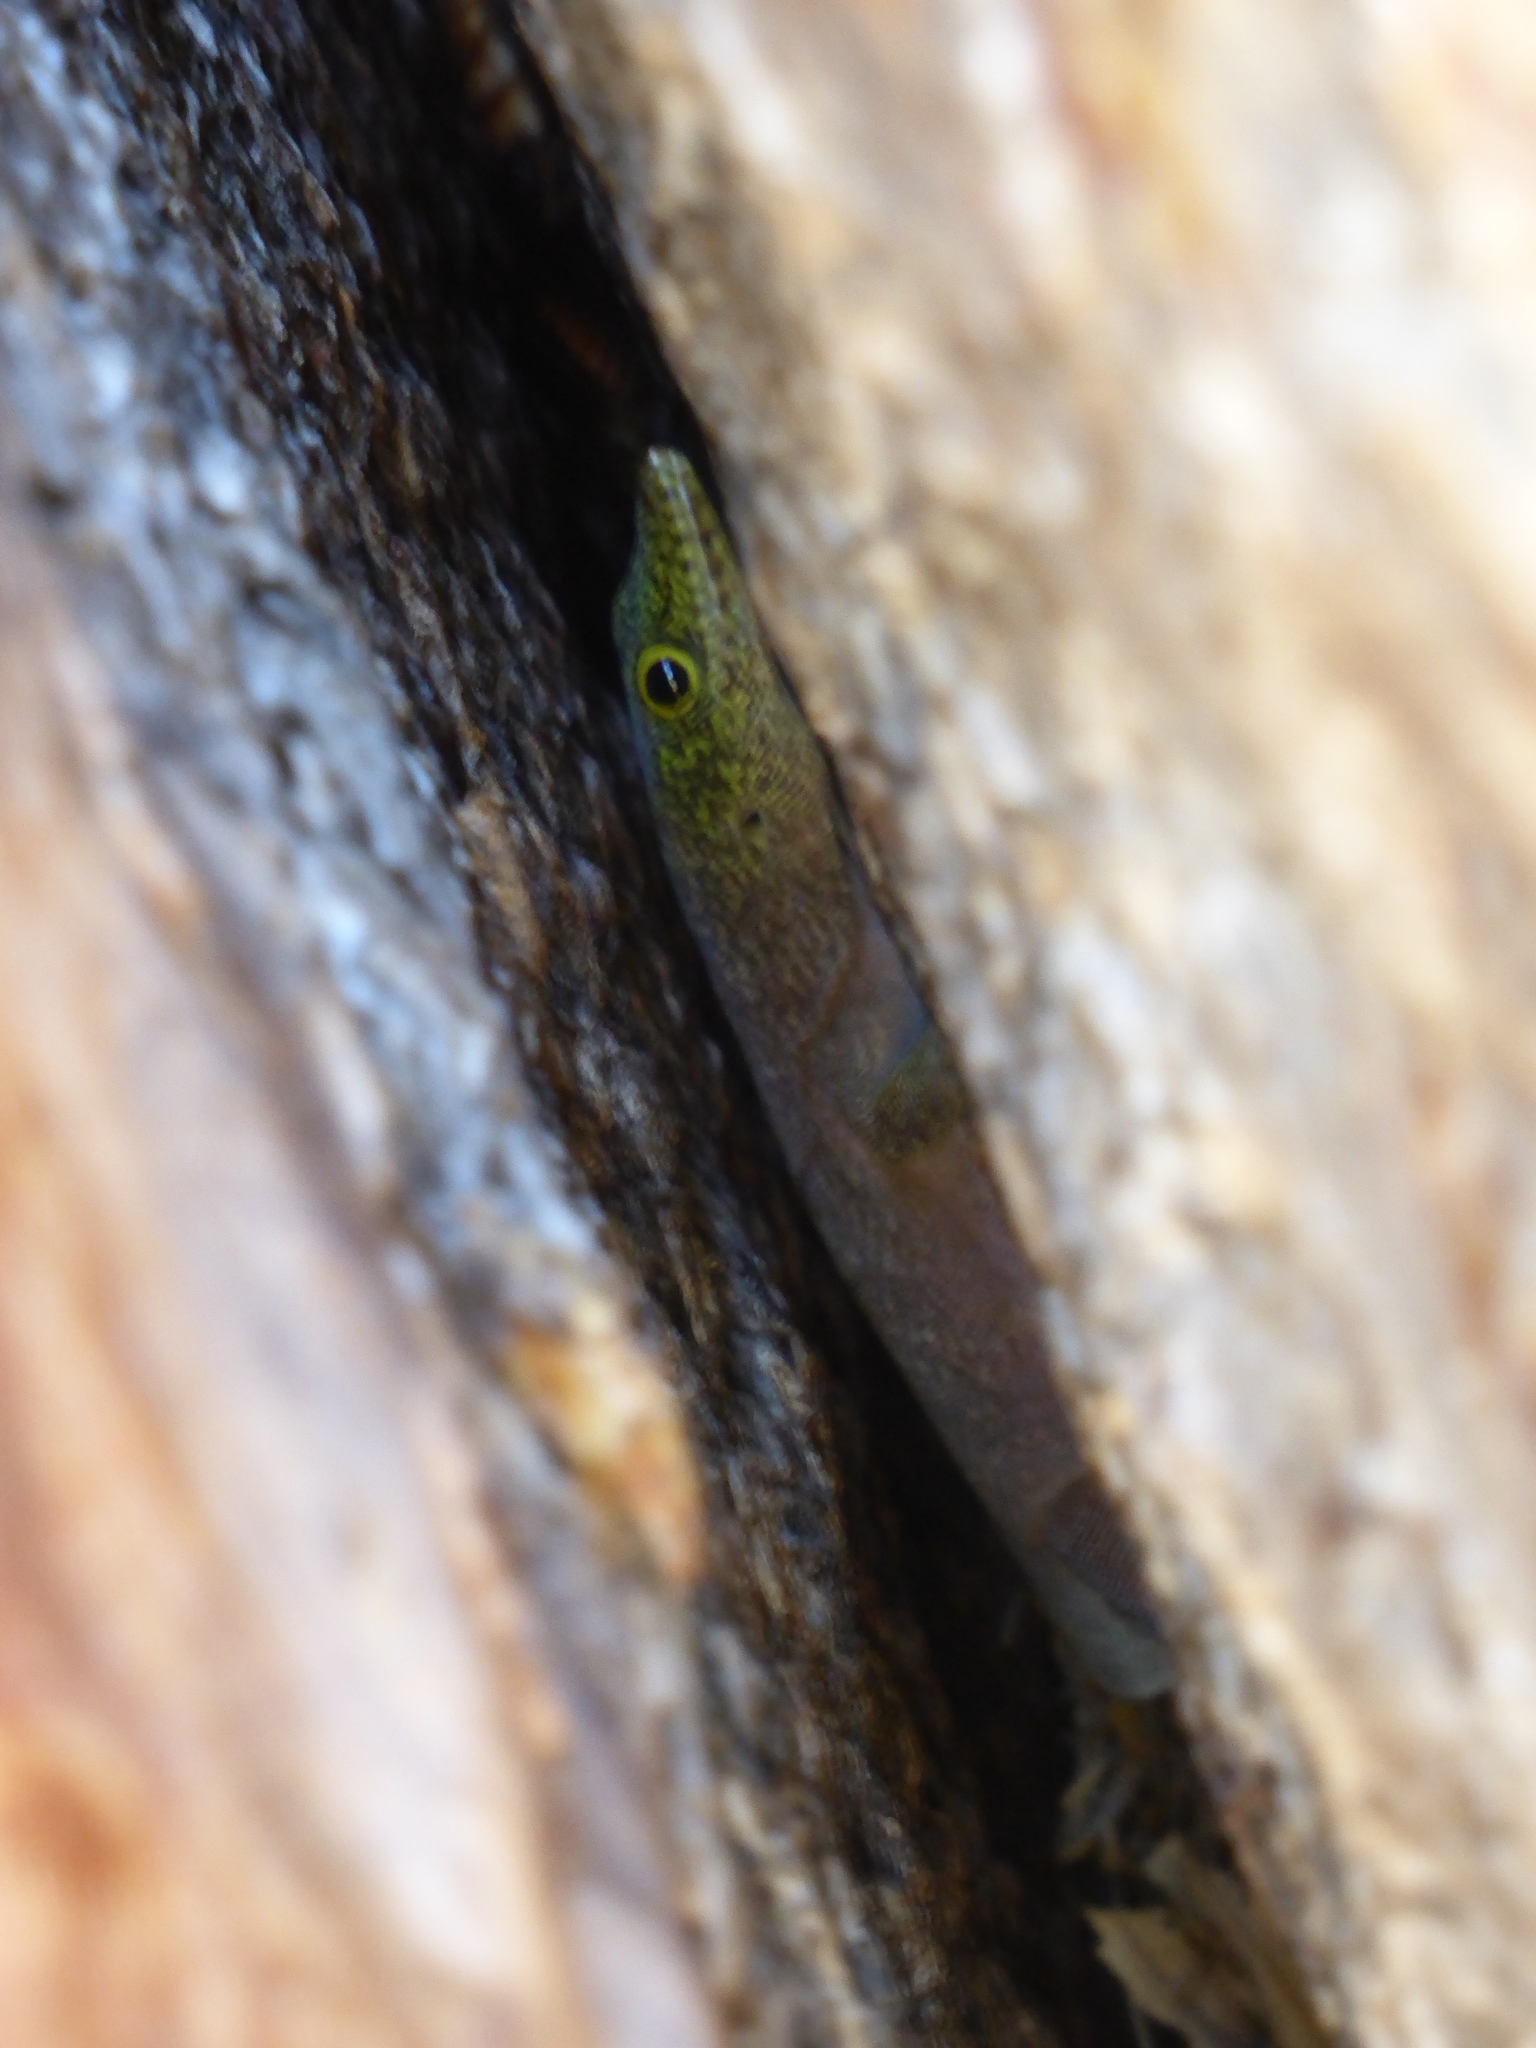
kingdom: Animalia
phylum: Chordata
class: Squamata
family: Gekkonidae
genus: Phelsuma
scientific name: Phelsuma standingi
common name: Standing's day gecko
